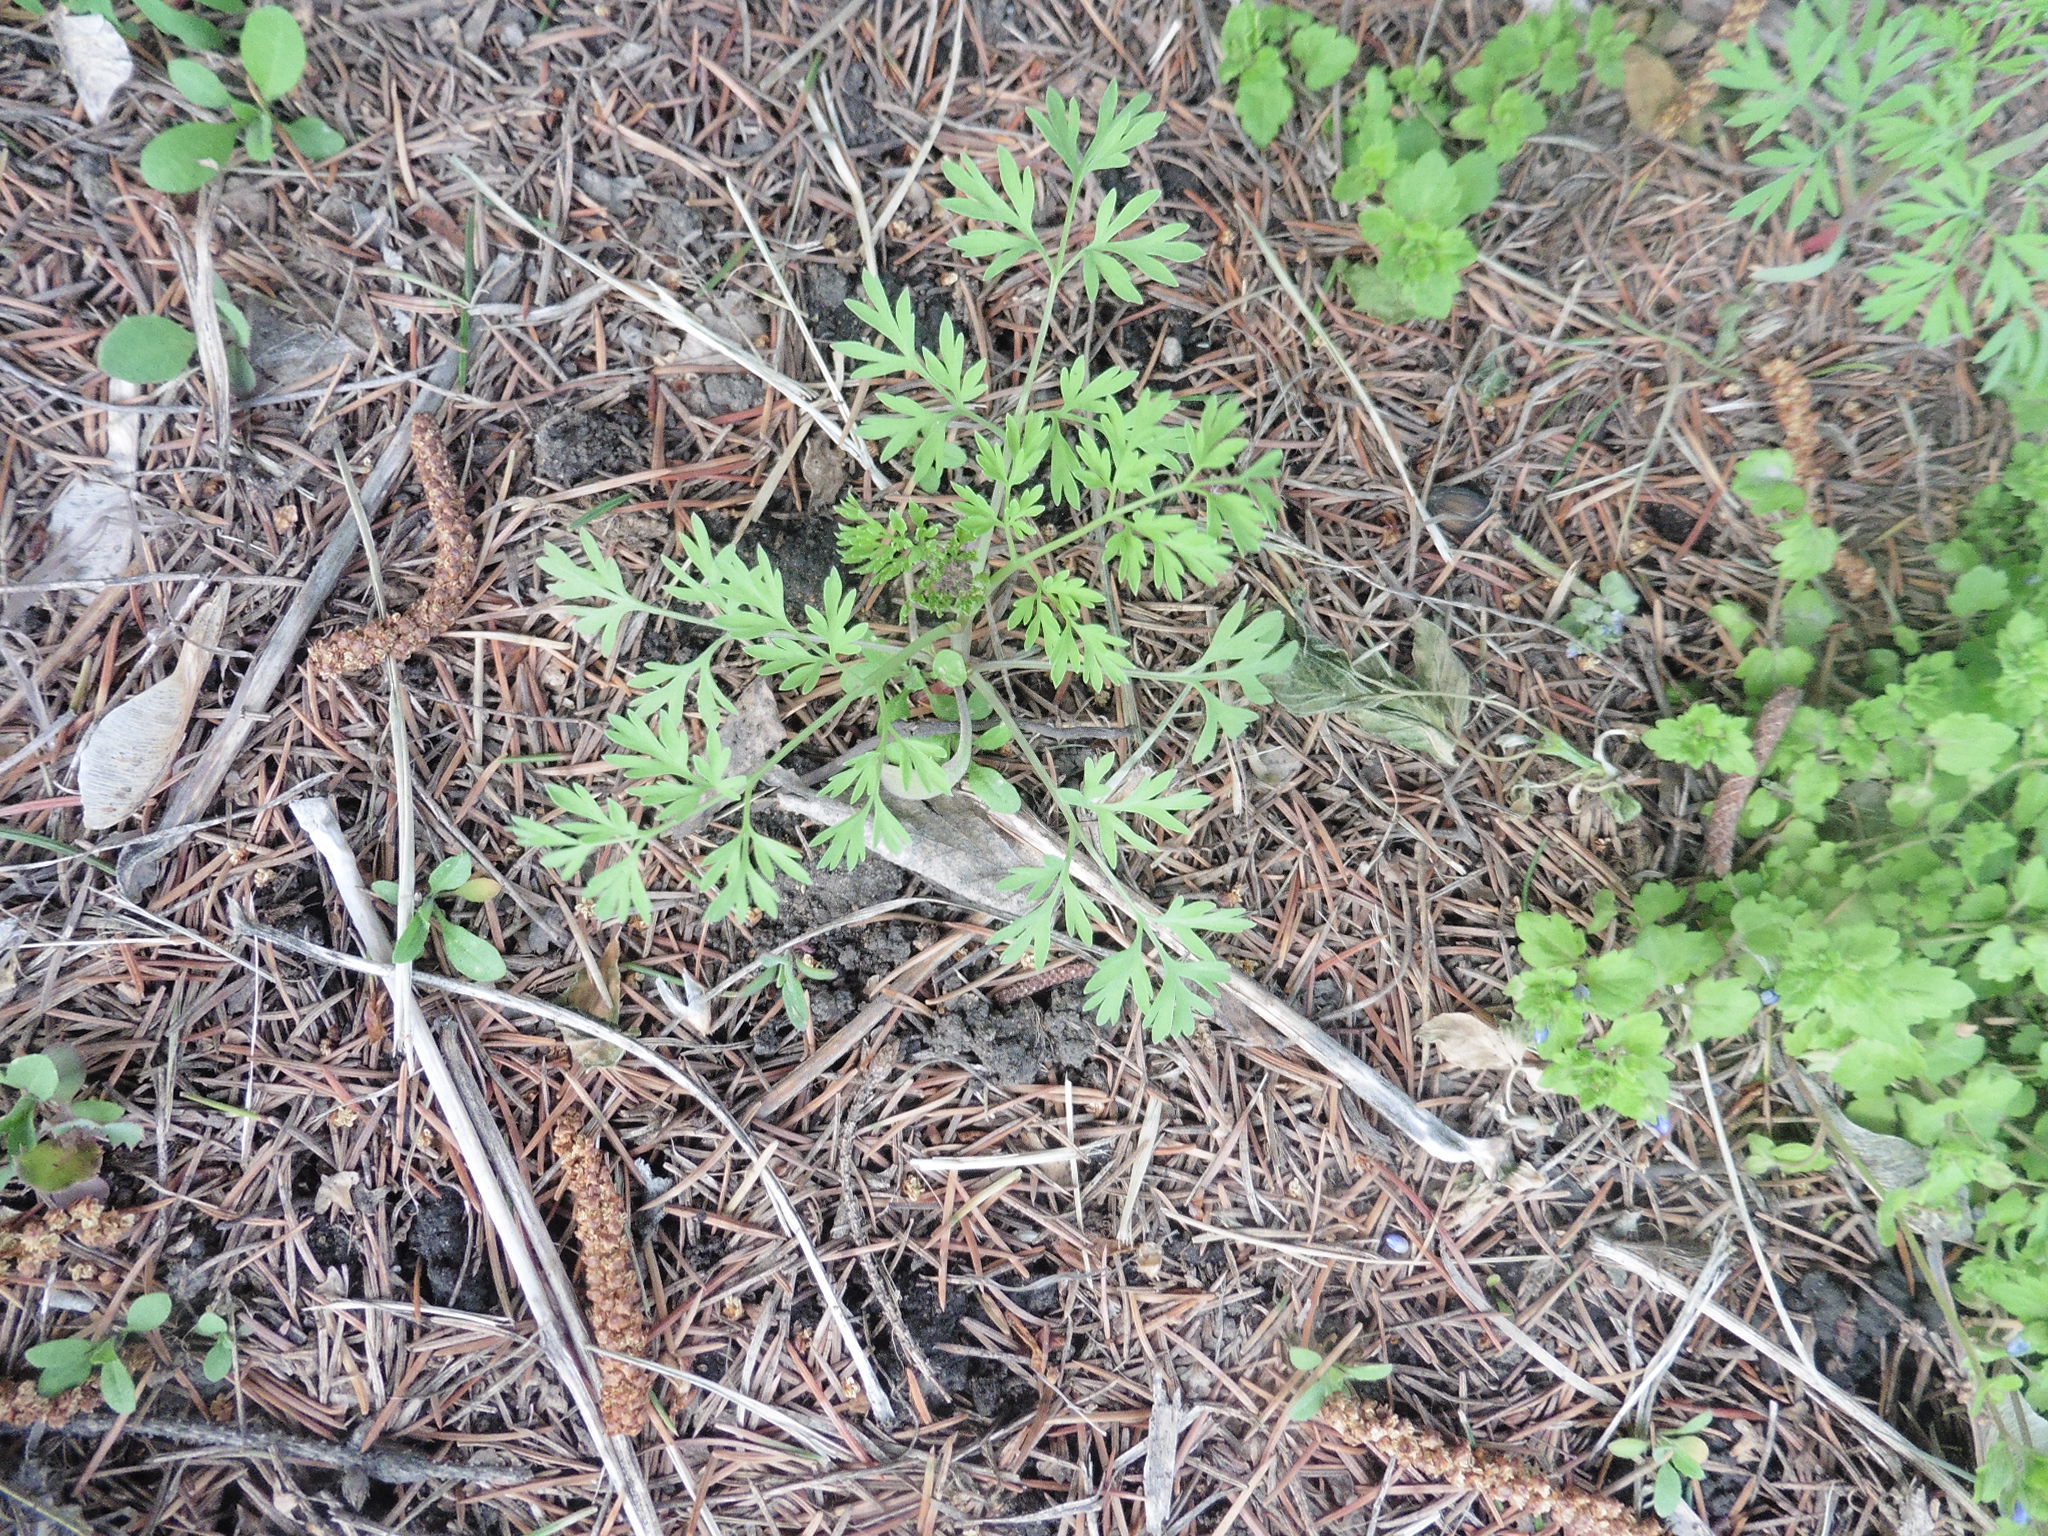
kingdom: Plantae
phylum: Tracheophyta
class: Magnoliopsida
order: Ranunculales
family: Papaveraceae
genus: Fumaria
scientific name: Fumaria officinalis
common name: Common fumitory
